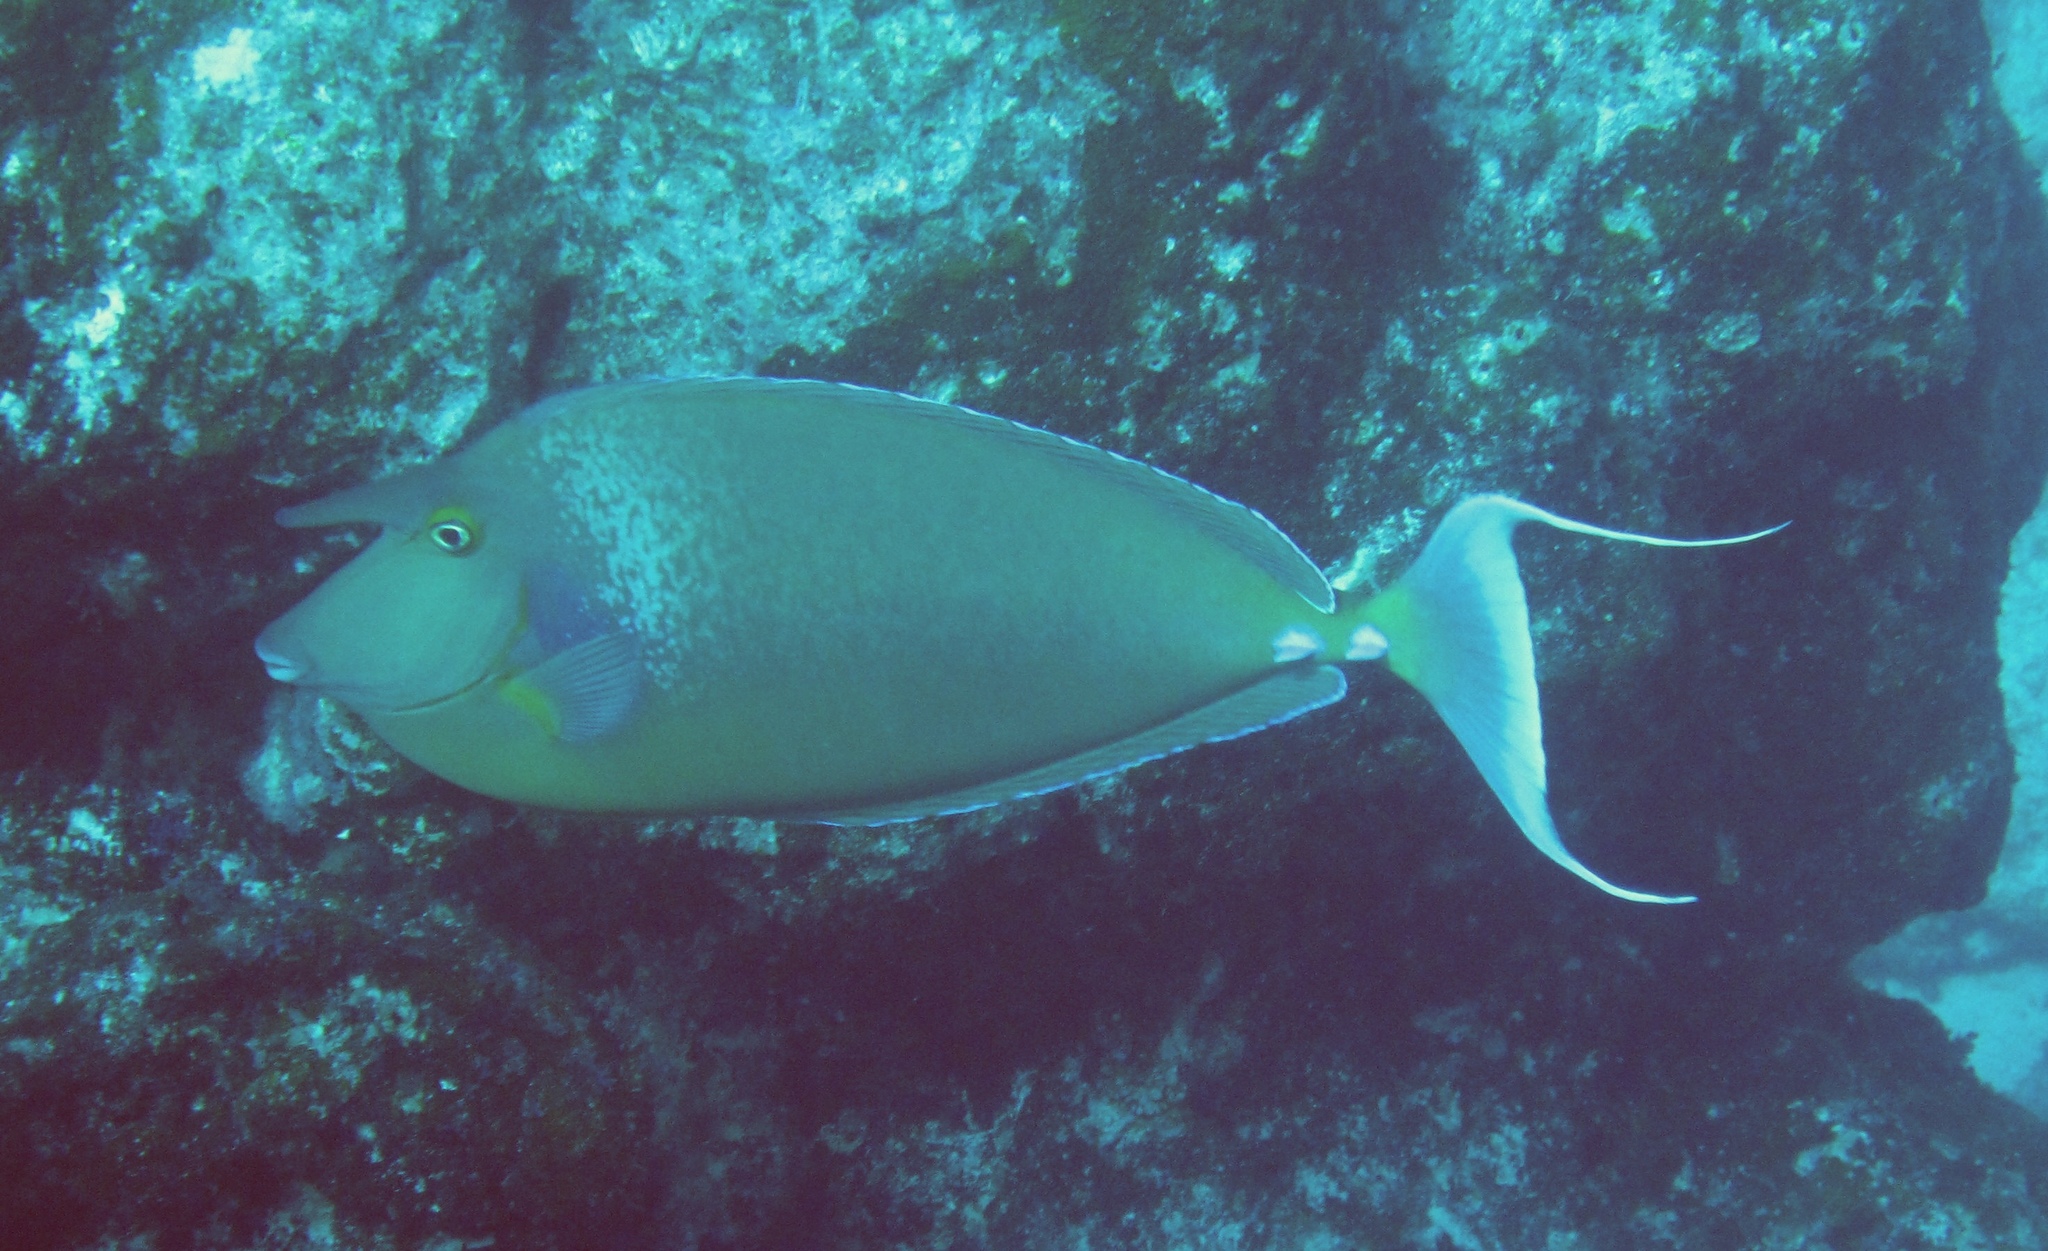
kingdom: Animalia
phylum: Chordata
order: Perciformes
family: Acanthuridae
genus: Naso
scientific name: Naso unicornis
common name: Bluespine unicornfish
